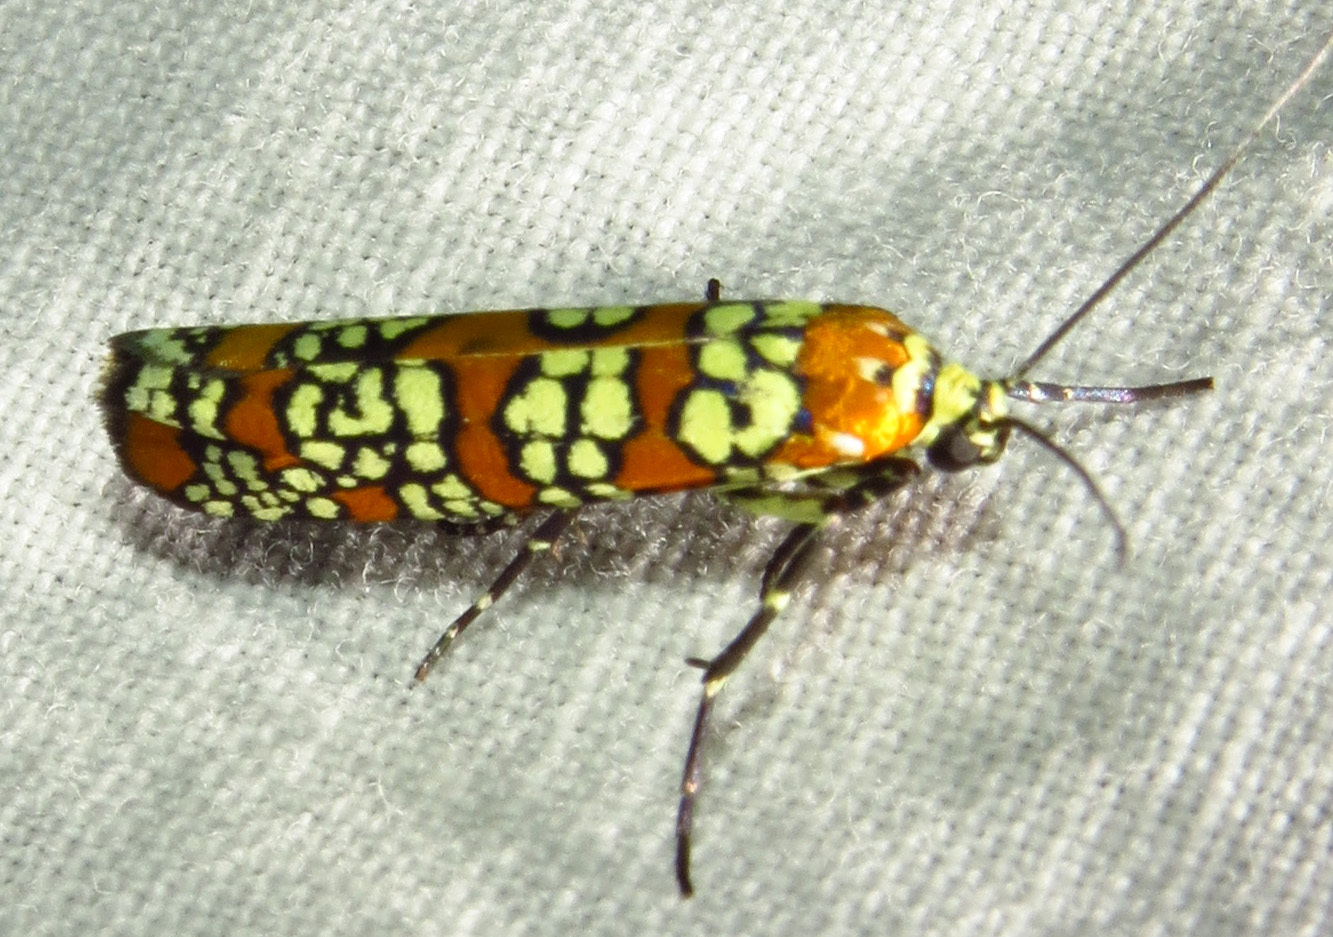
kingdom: Animalia
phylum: Arthropoda
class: Insecta
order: Lepidoptera
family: Attevidae
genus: Atteva
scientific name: Atteva punctella
